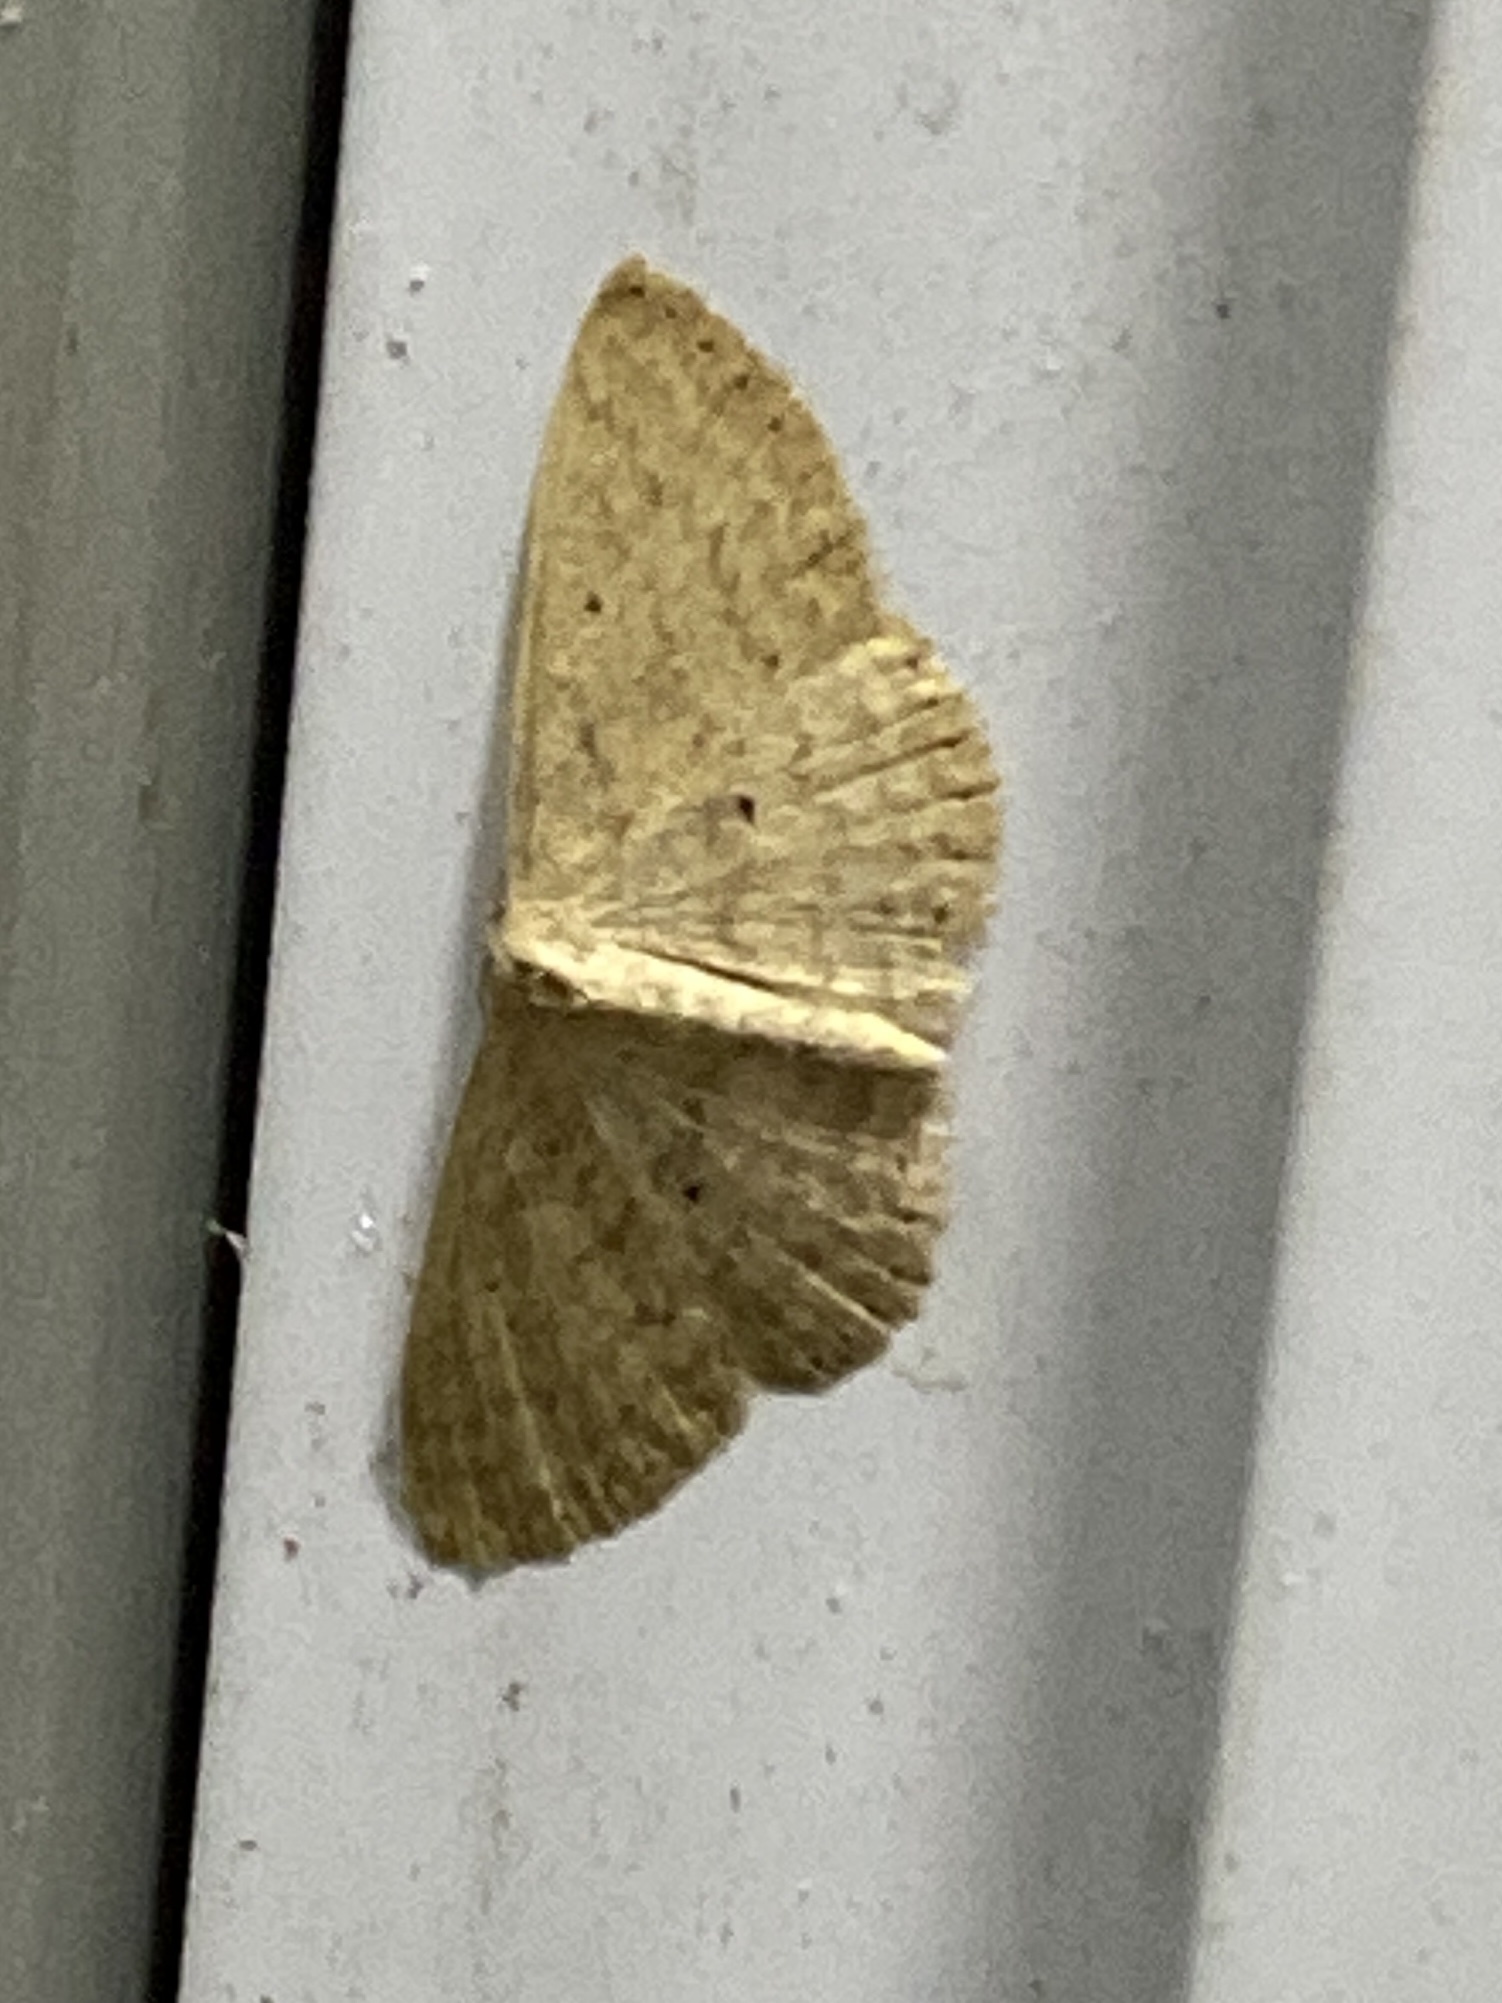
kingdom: Animalia
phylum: Arthropoda
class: Insecta
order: Lepidoptera
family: Geometridae
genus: Scopula
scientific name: Scopula minorata
